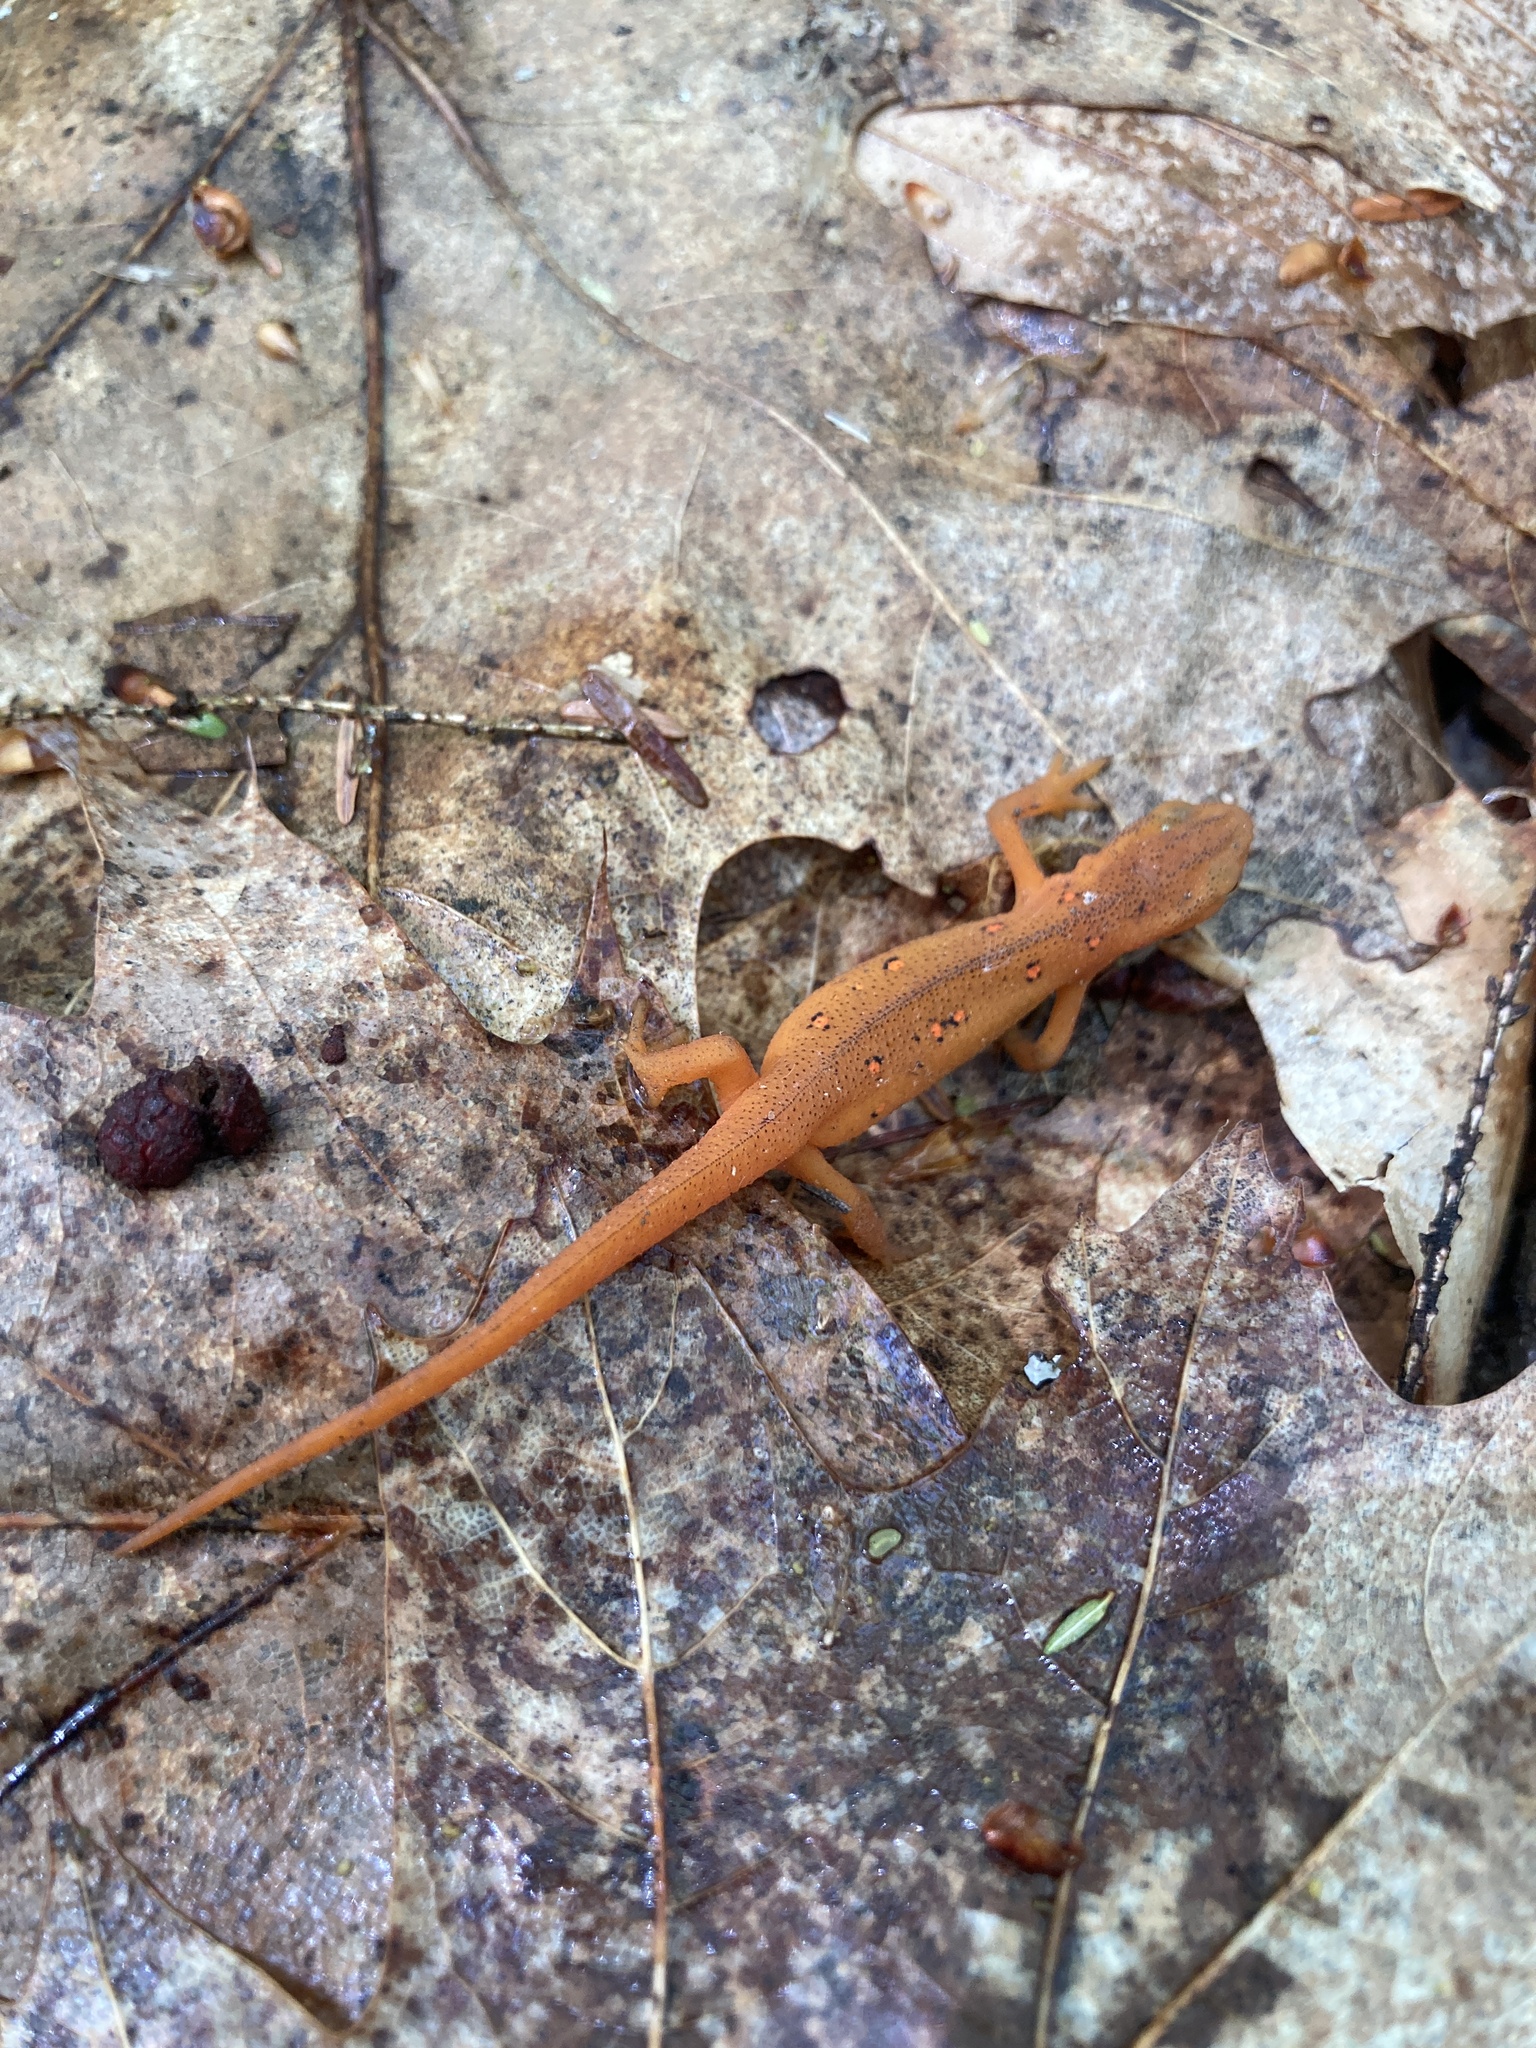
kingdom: Animalia
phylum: Chordata
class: Amphibia
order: Caudata
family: Salamandridae
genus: Notophthalmus
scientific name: Notophthalmus viridescens
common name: Eastern newt
